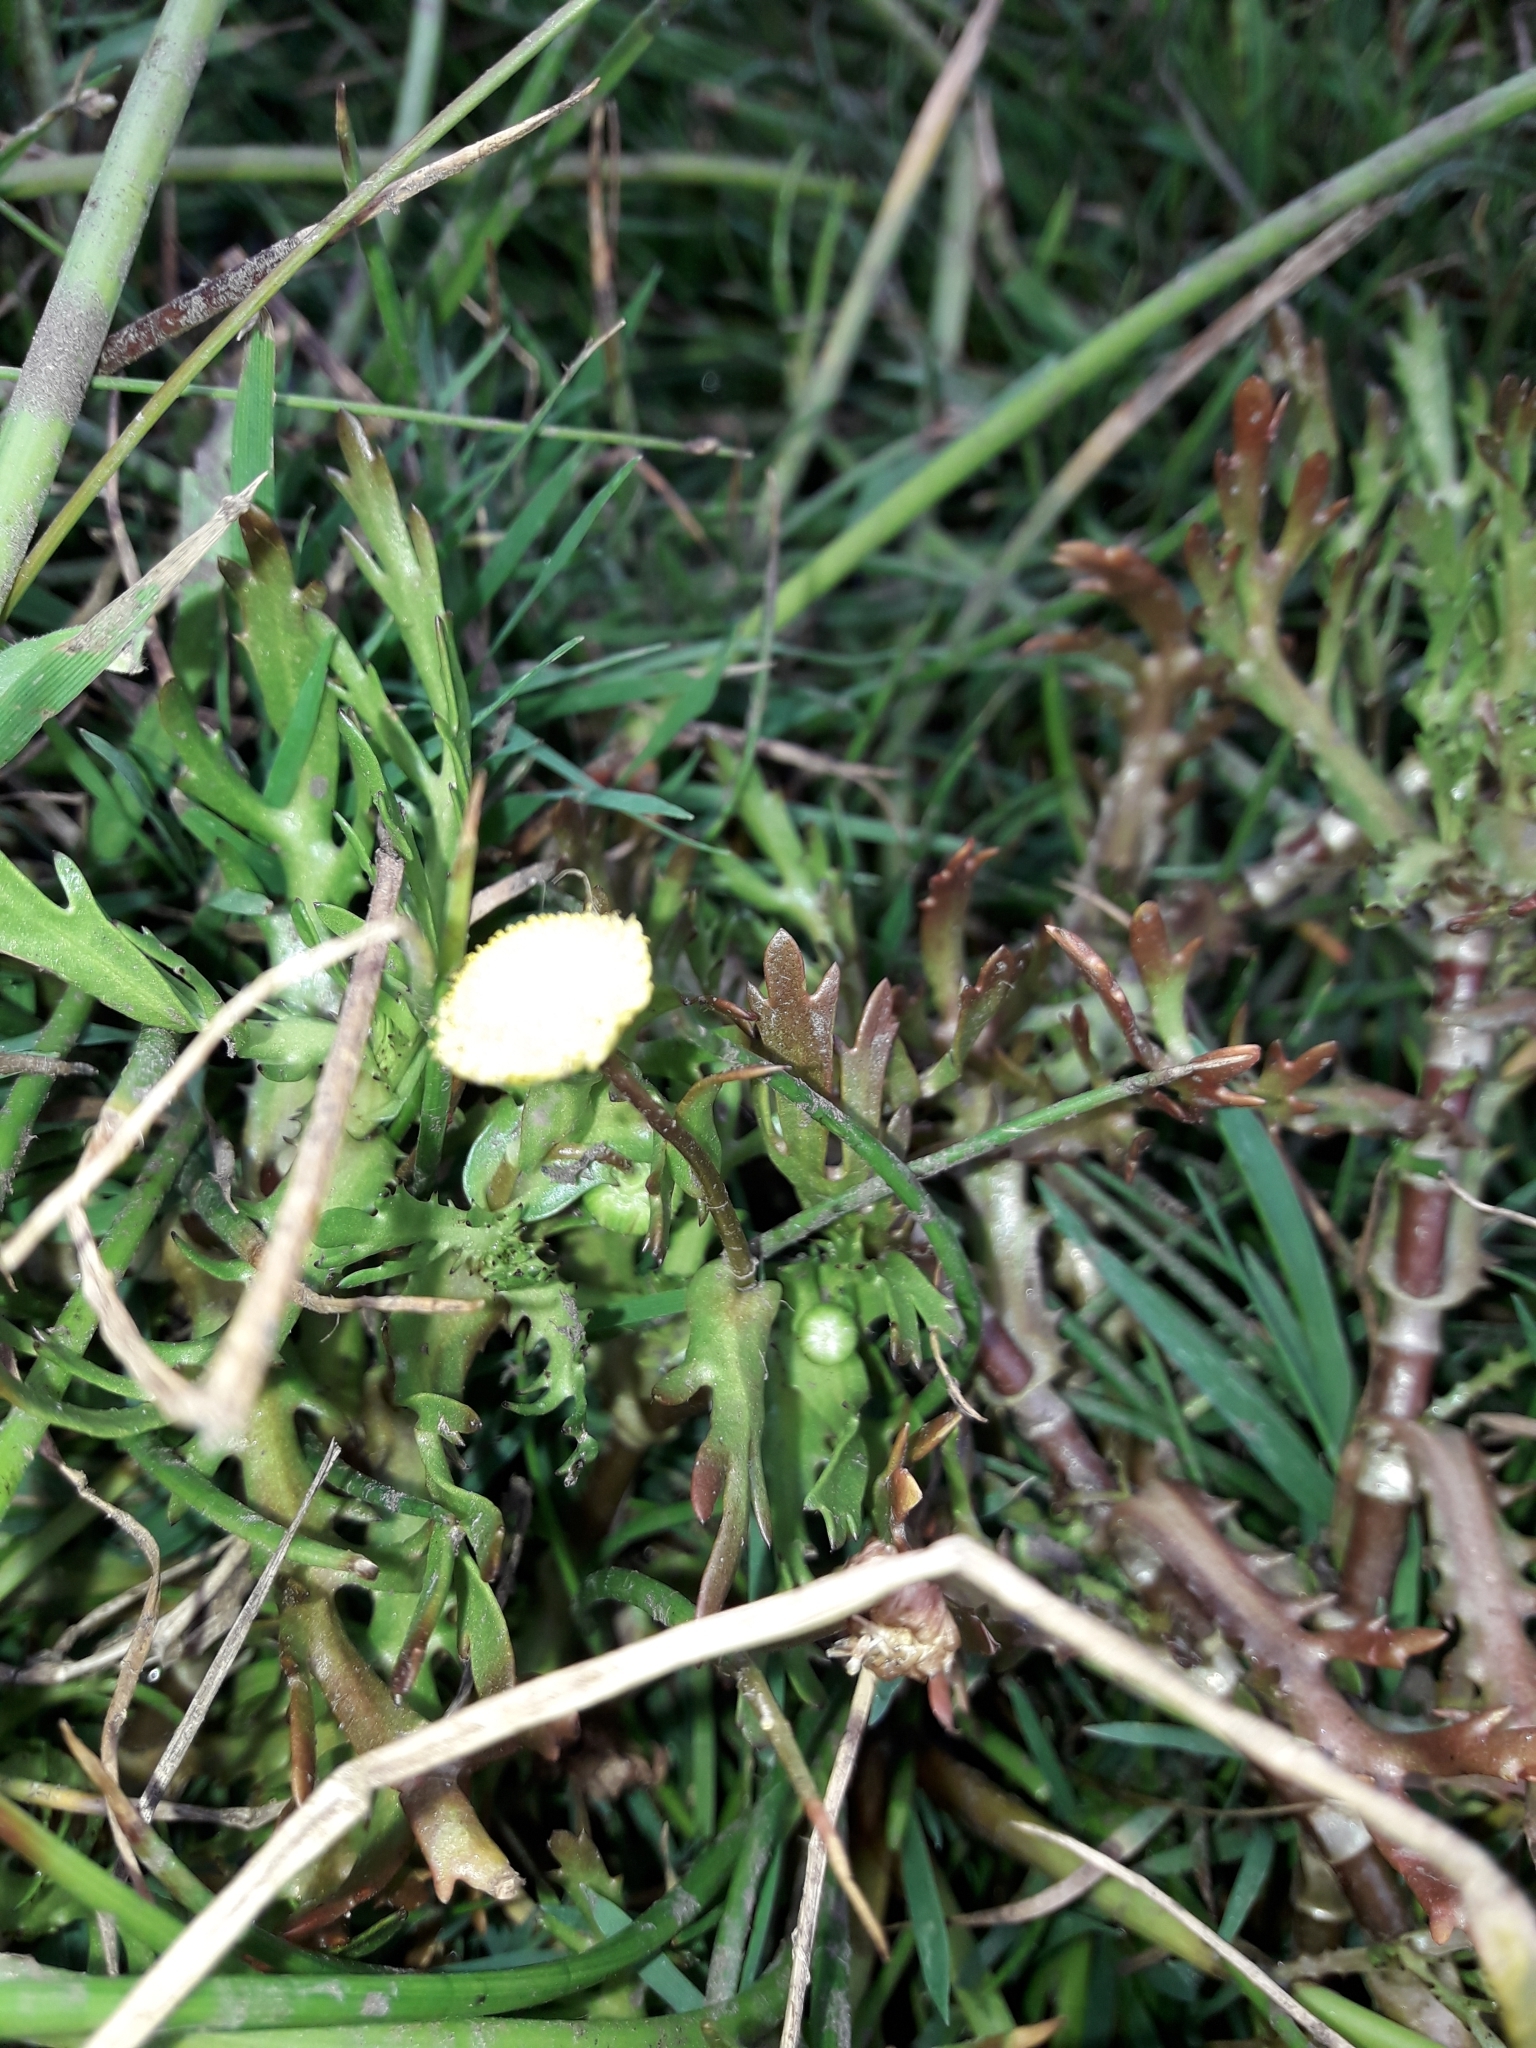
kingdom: Plantae
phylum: Tracheophyta
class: Magnoliopsida
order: Asterales
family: Asteraceae
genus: Cotula
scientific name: Cotula coronopifolia
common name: Buttonweed
